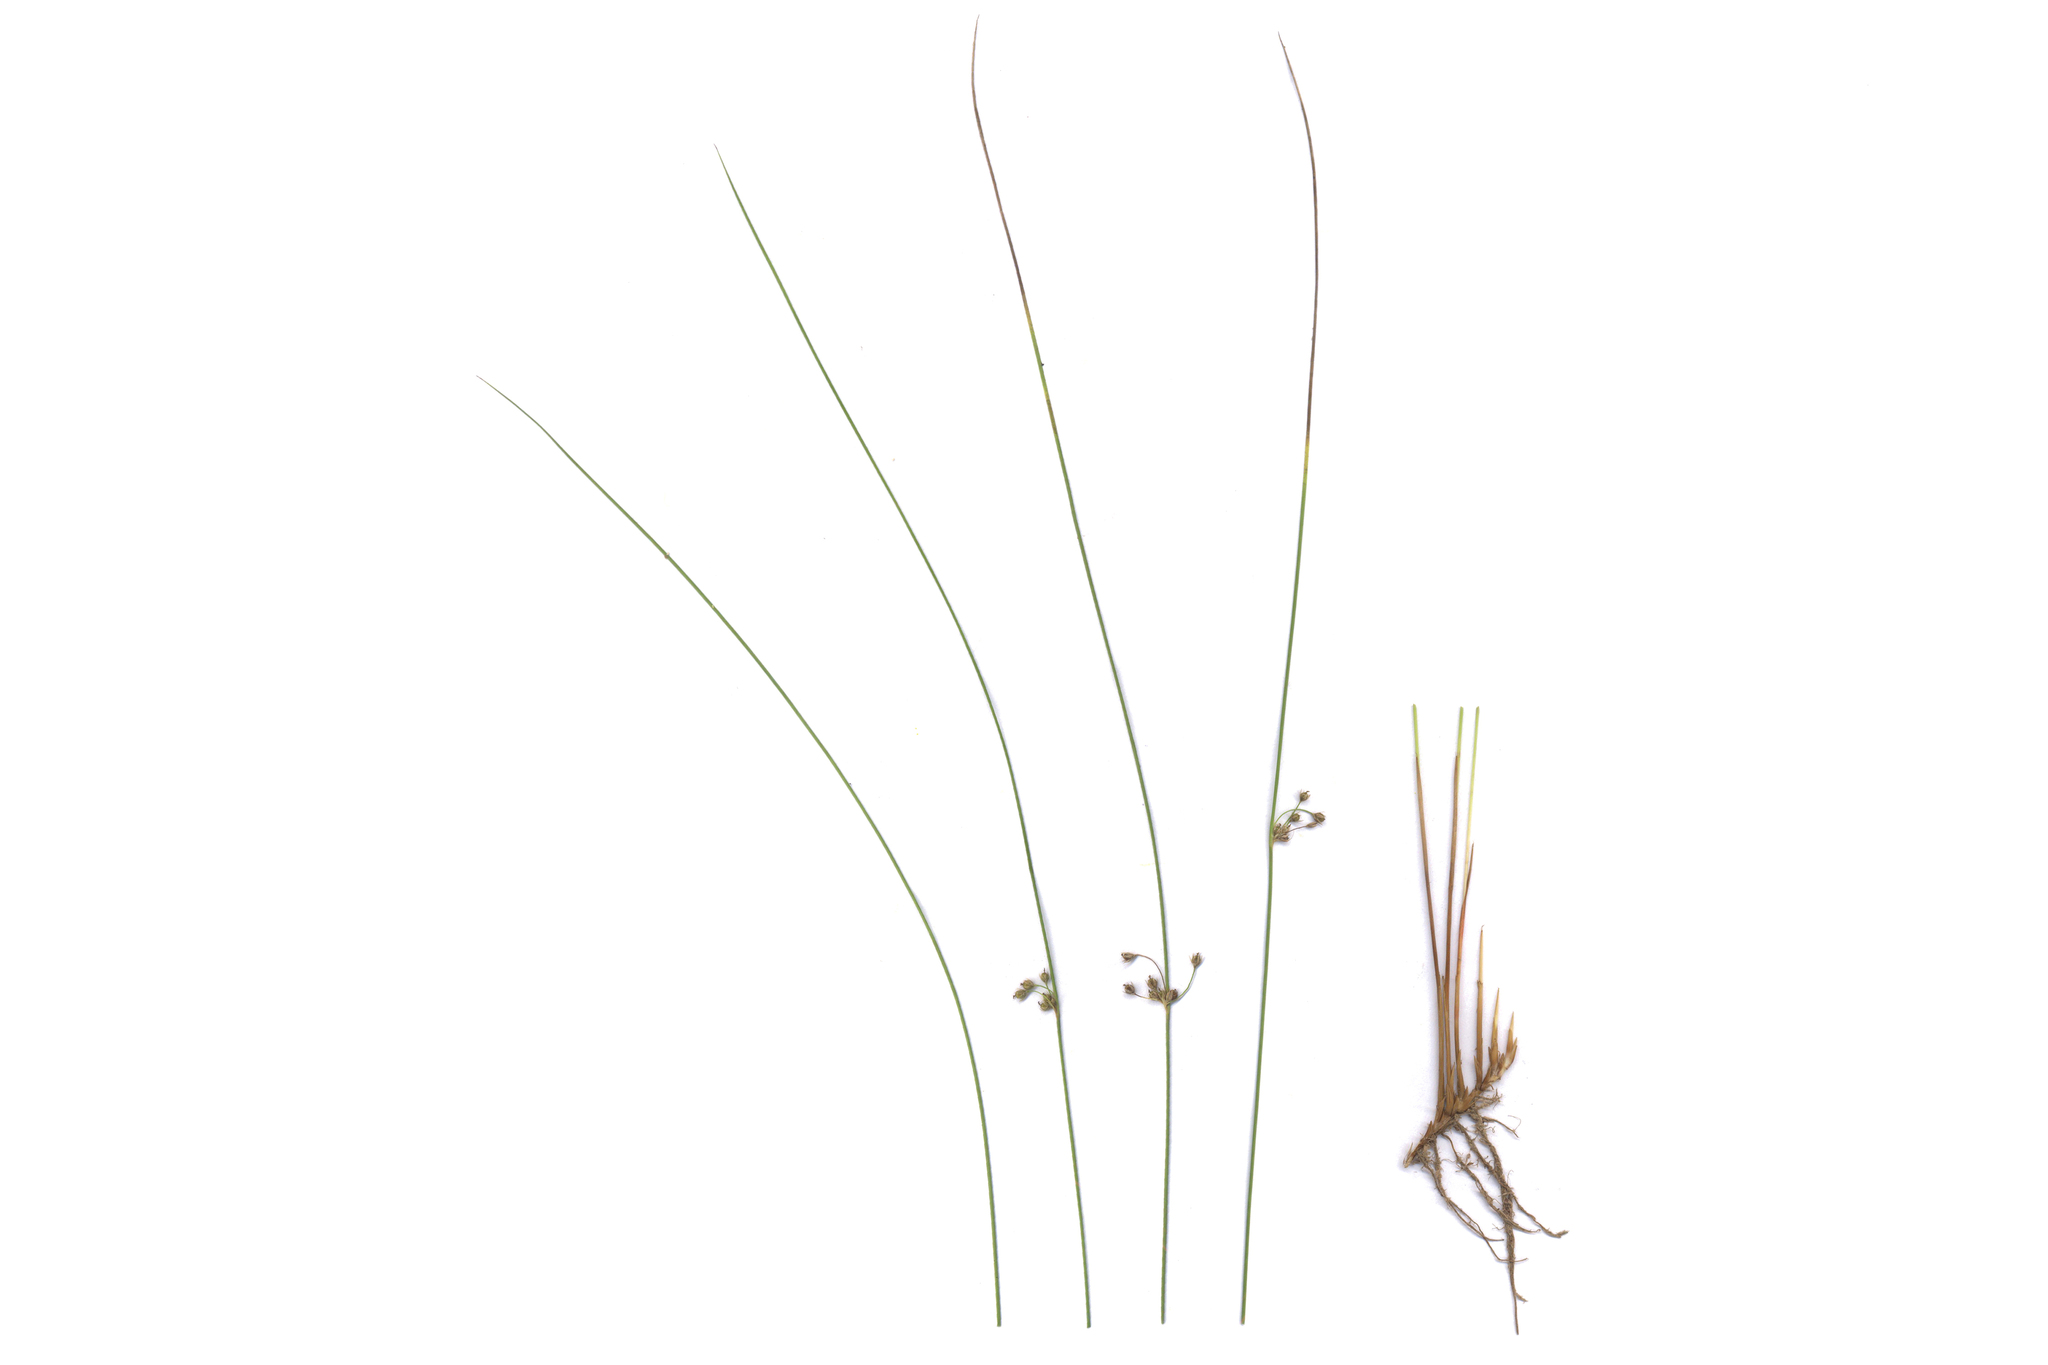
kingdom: Plantae
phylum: Tracheophyta
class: Liliopsida
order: Poales
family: Juncaceae
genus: Juncus
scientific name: Juncus filiformis
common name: Thread rush
